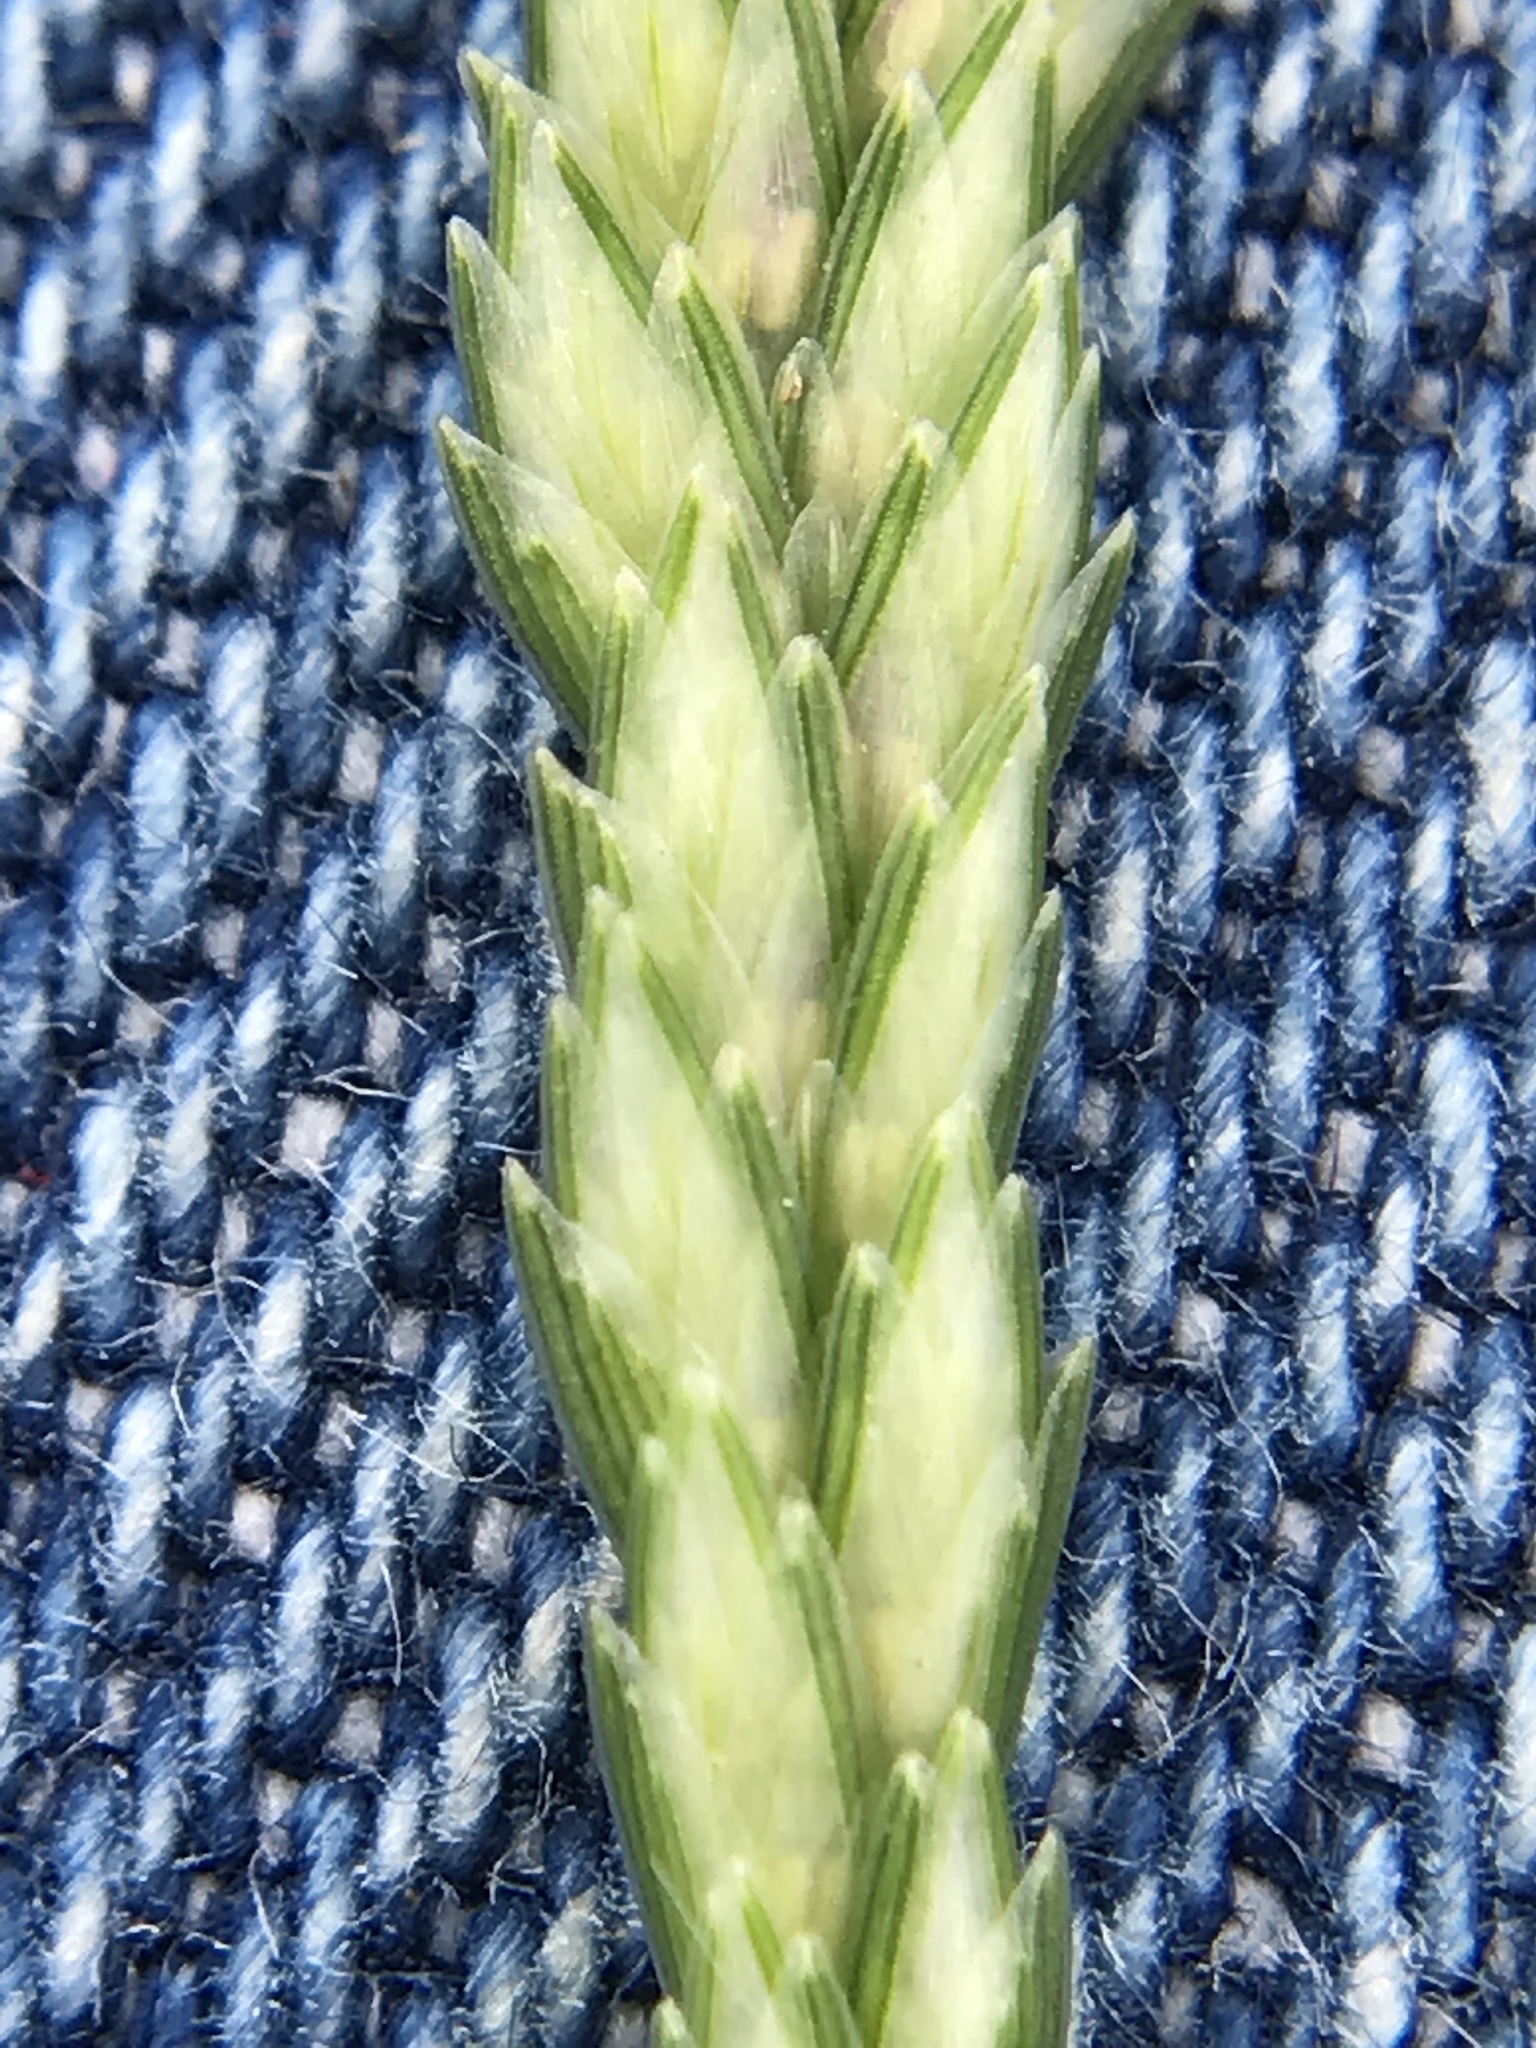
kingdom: Plantae
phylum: Tracheophyta
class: Liliopsida
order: Poales
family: Poaceae
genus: Eleusine
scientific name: Eleusine indica
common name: Yard-grass
